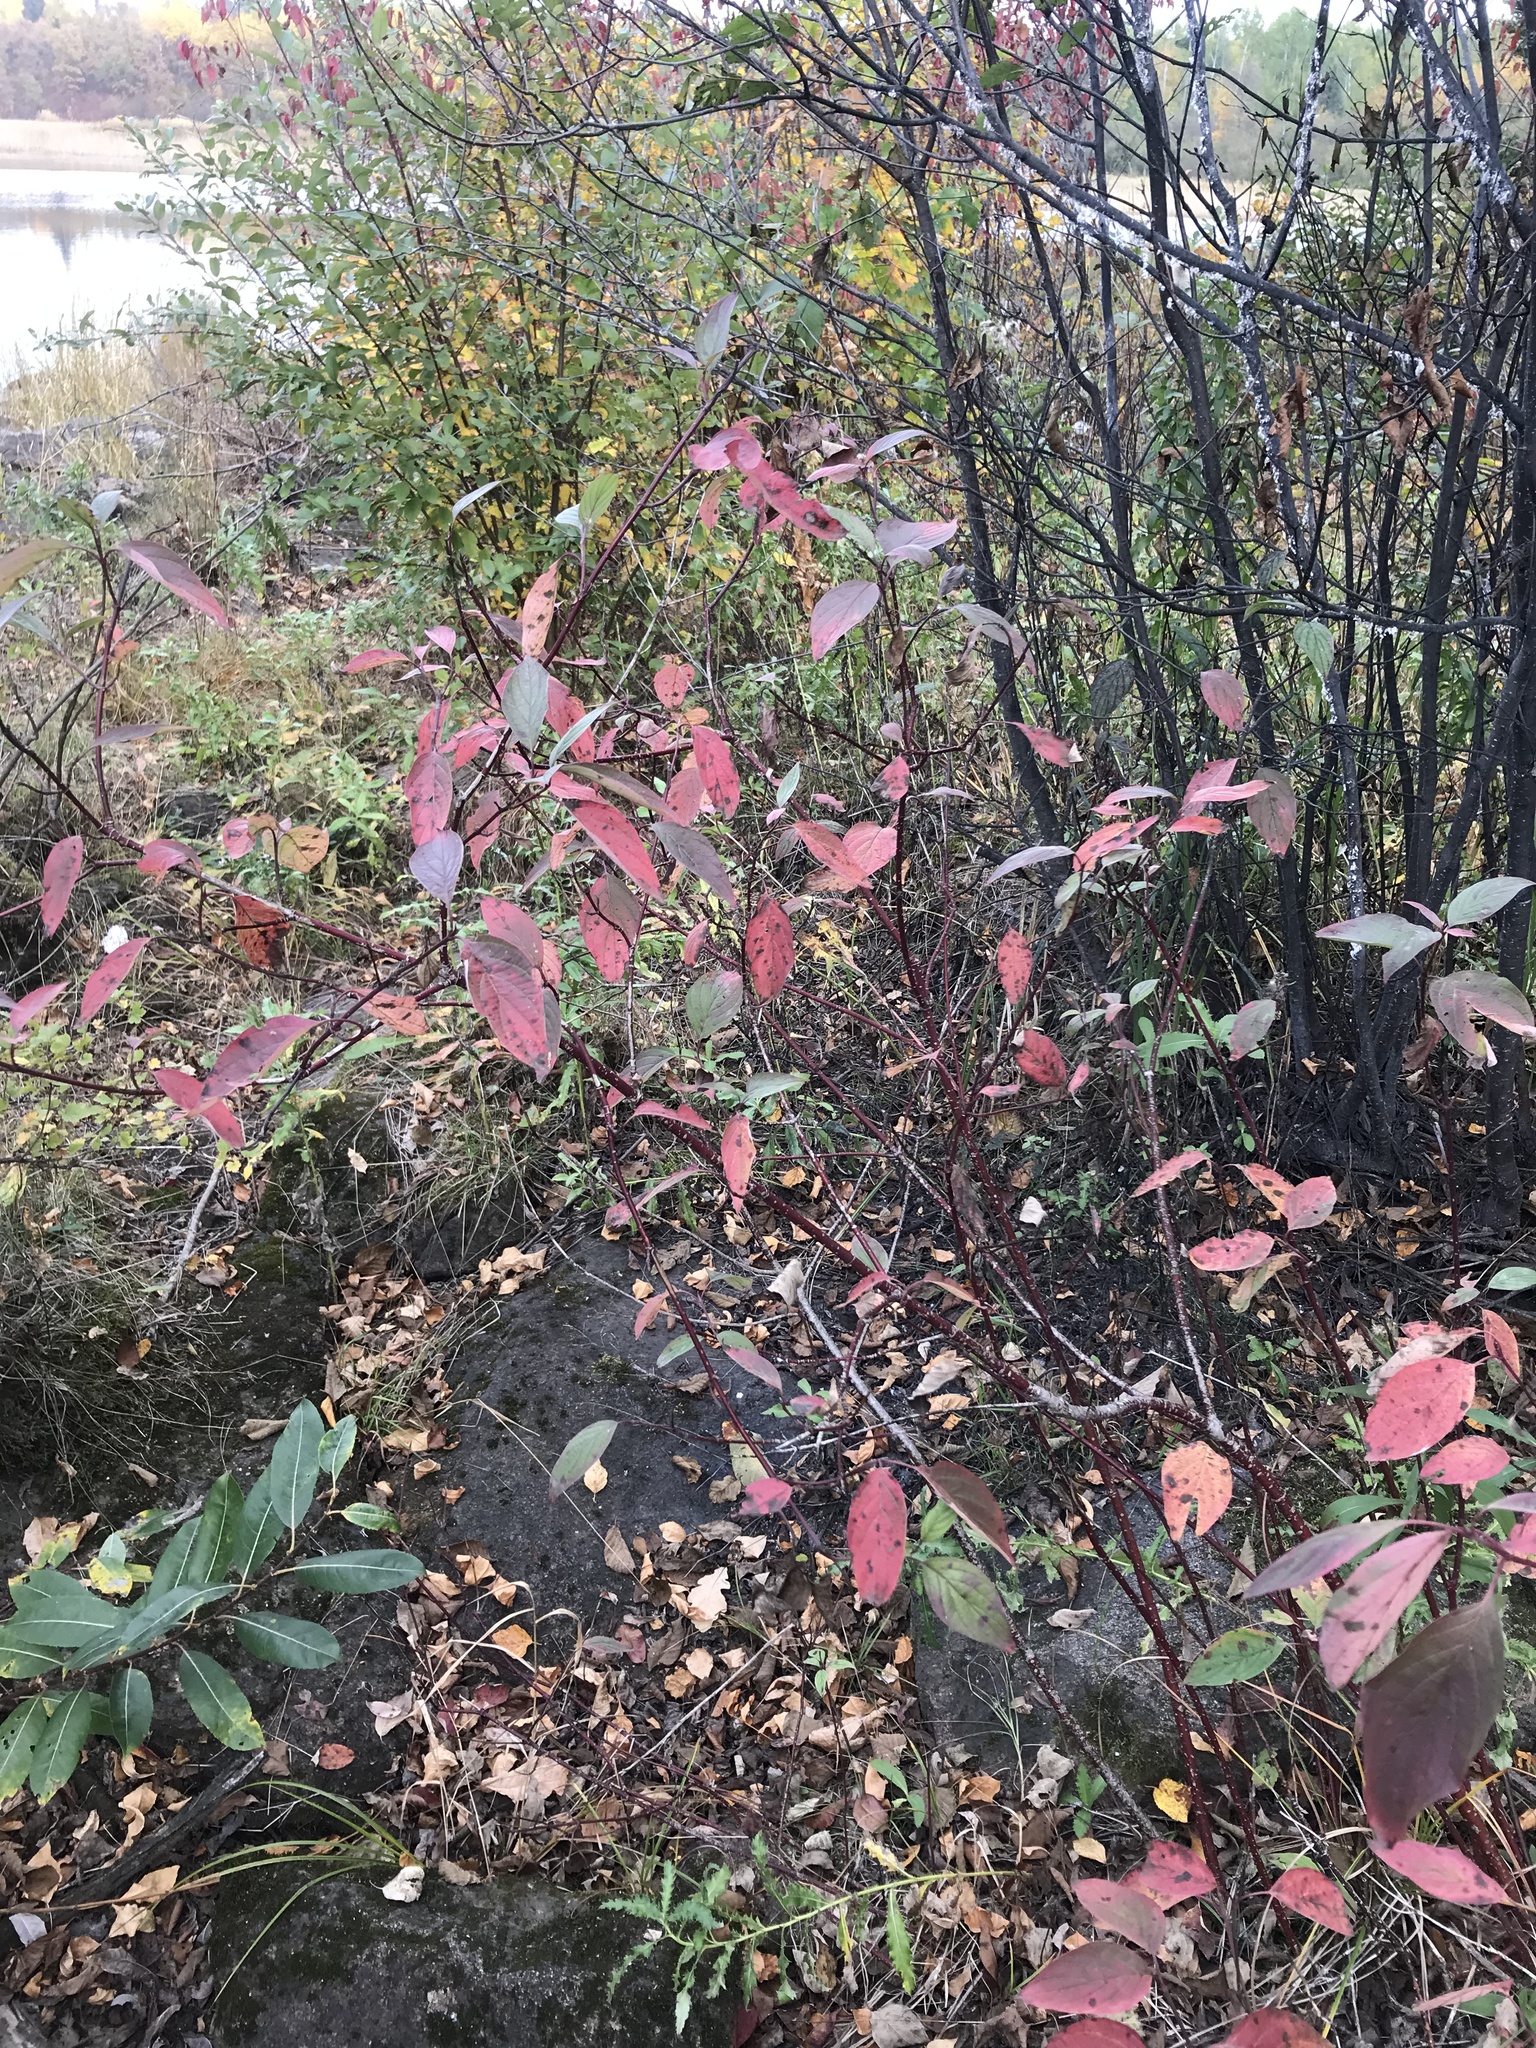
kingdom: Plantae
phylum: Tracheophyta
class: Magnoliopsida
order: Cornales
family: Cornaceae
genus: Cornus
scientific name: Cornus sericea
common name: Red-osier dogwood
